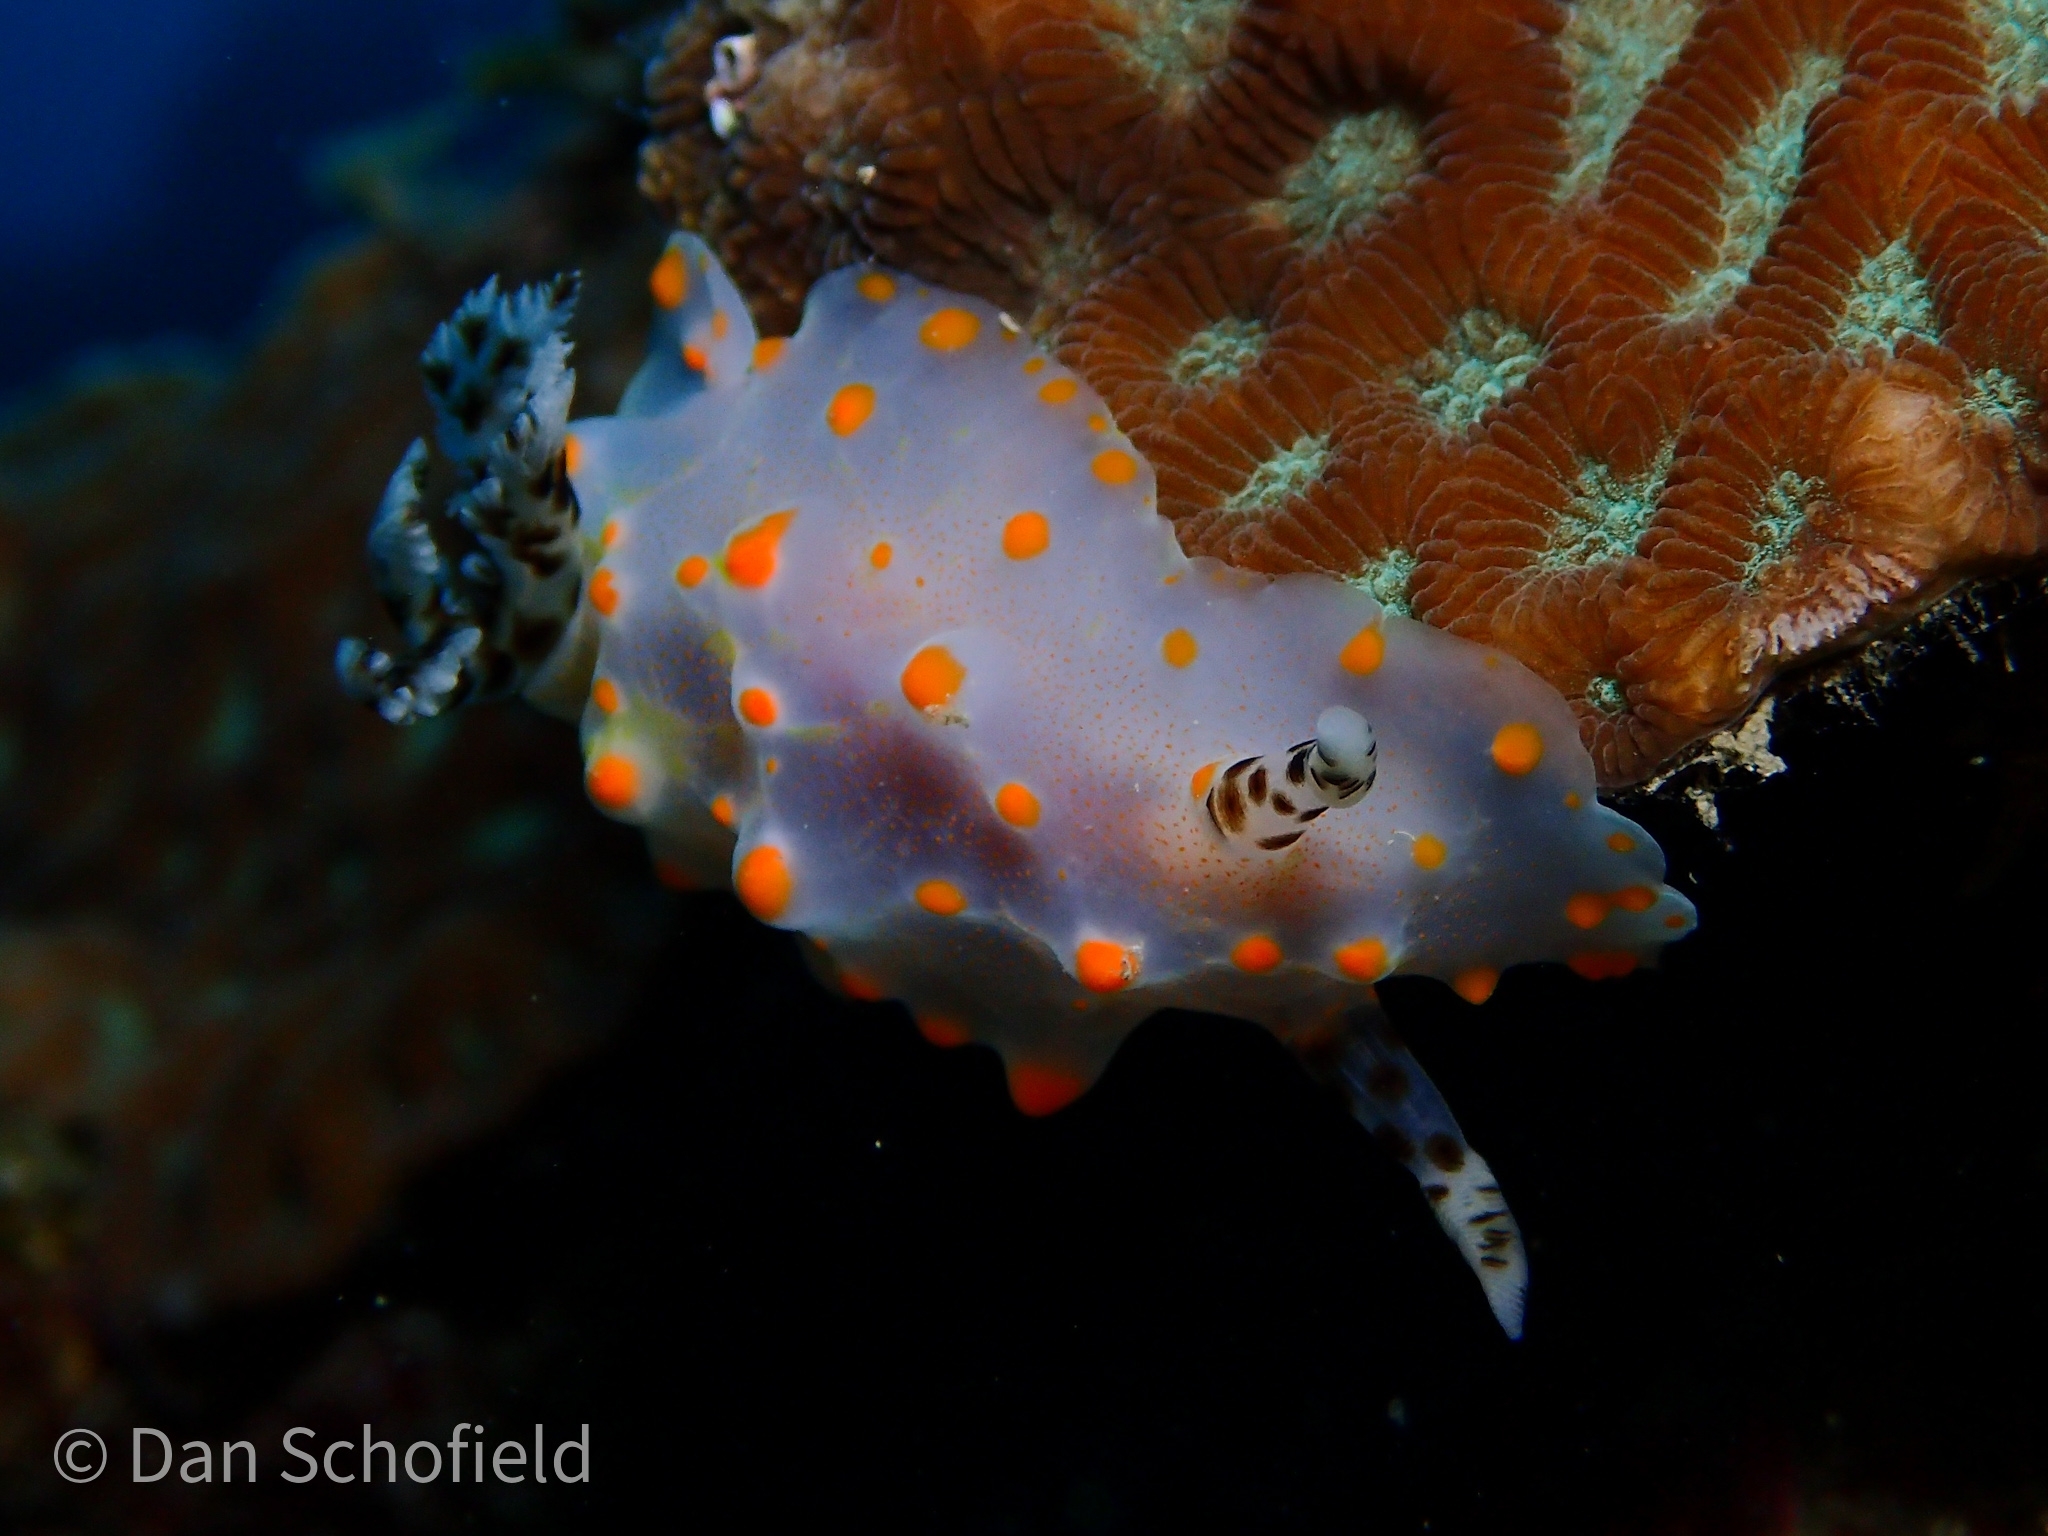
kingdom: Animalia
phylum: Mollusca
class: Gastropoda
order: Nudibranchia
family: Discodorididae
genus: Halgerda
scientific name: Halgerda carlsoni
